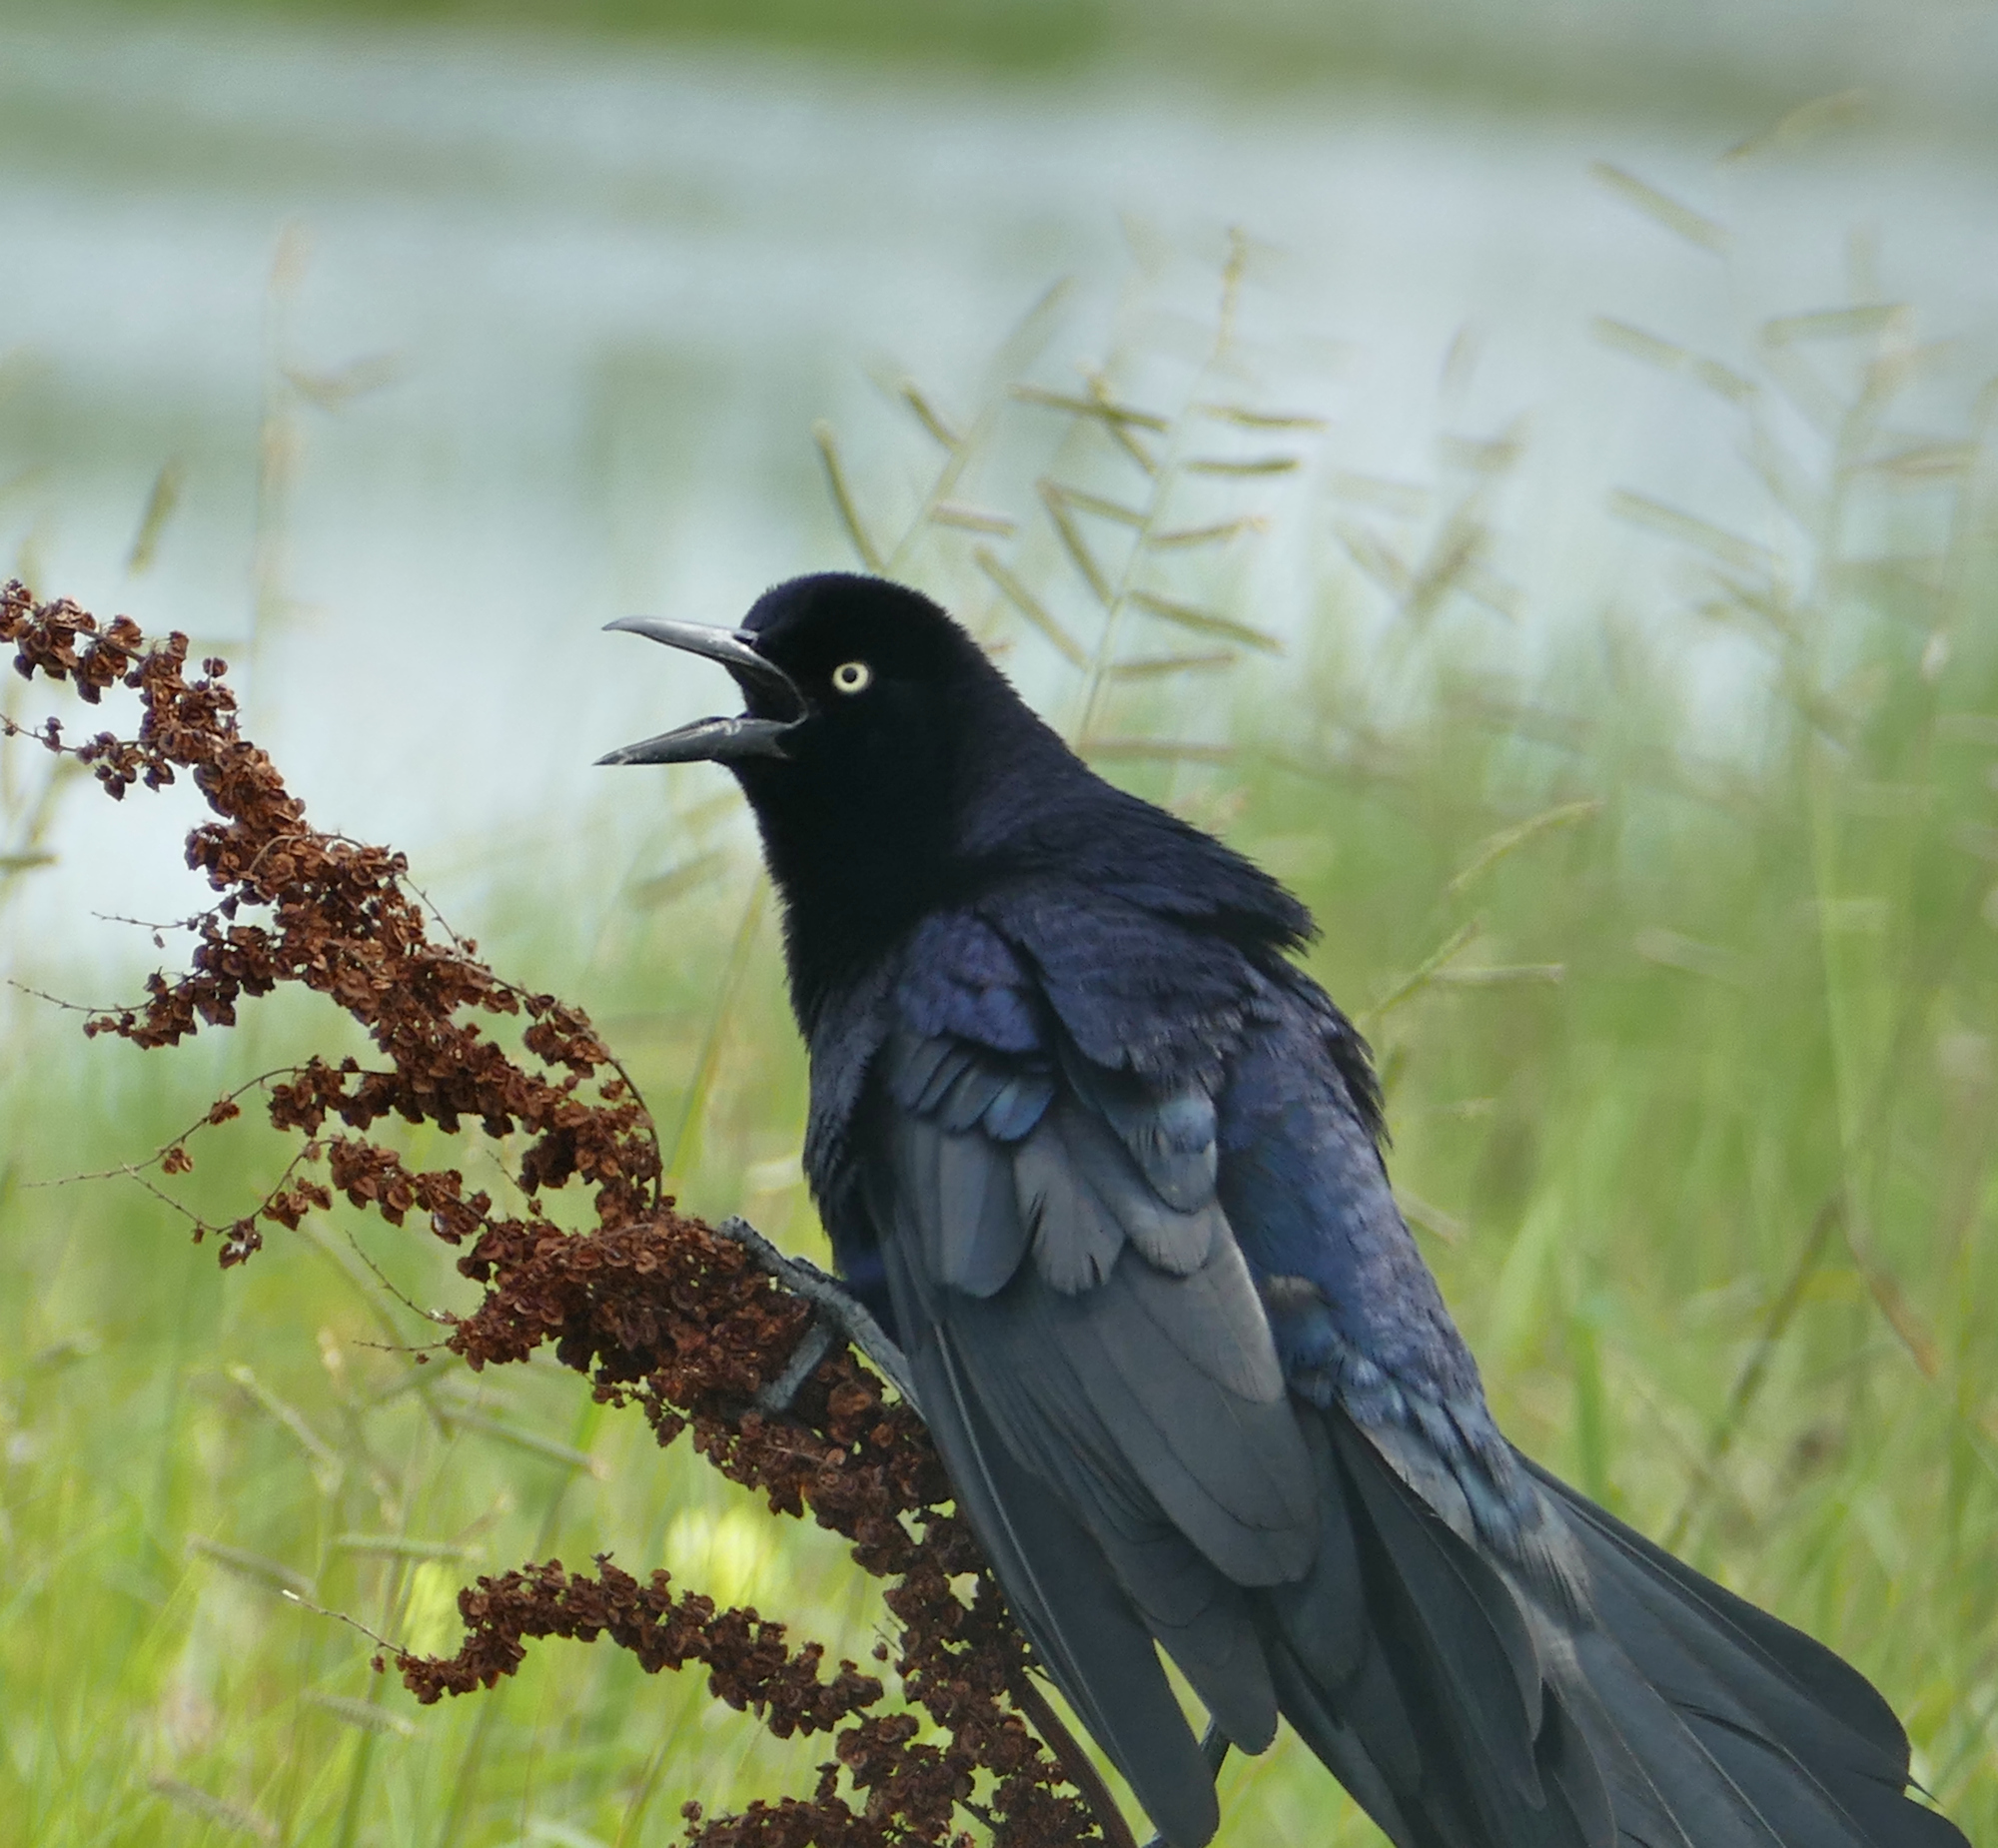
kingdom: Animalia
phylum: Chordata
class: Aves
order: Passeriformes
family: Icteridae
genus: Quiscalus
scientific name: Quiscalus mexicanus
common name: Great-tailed grackle
